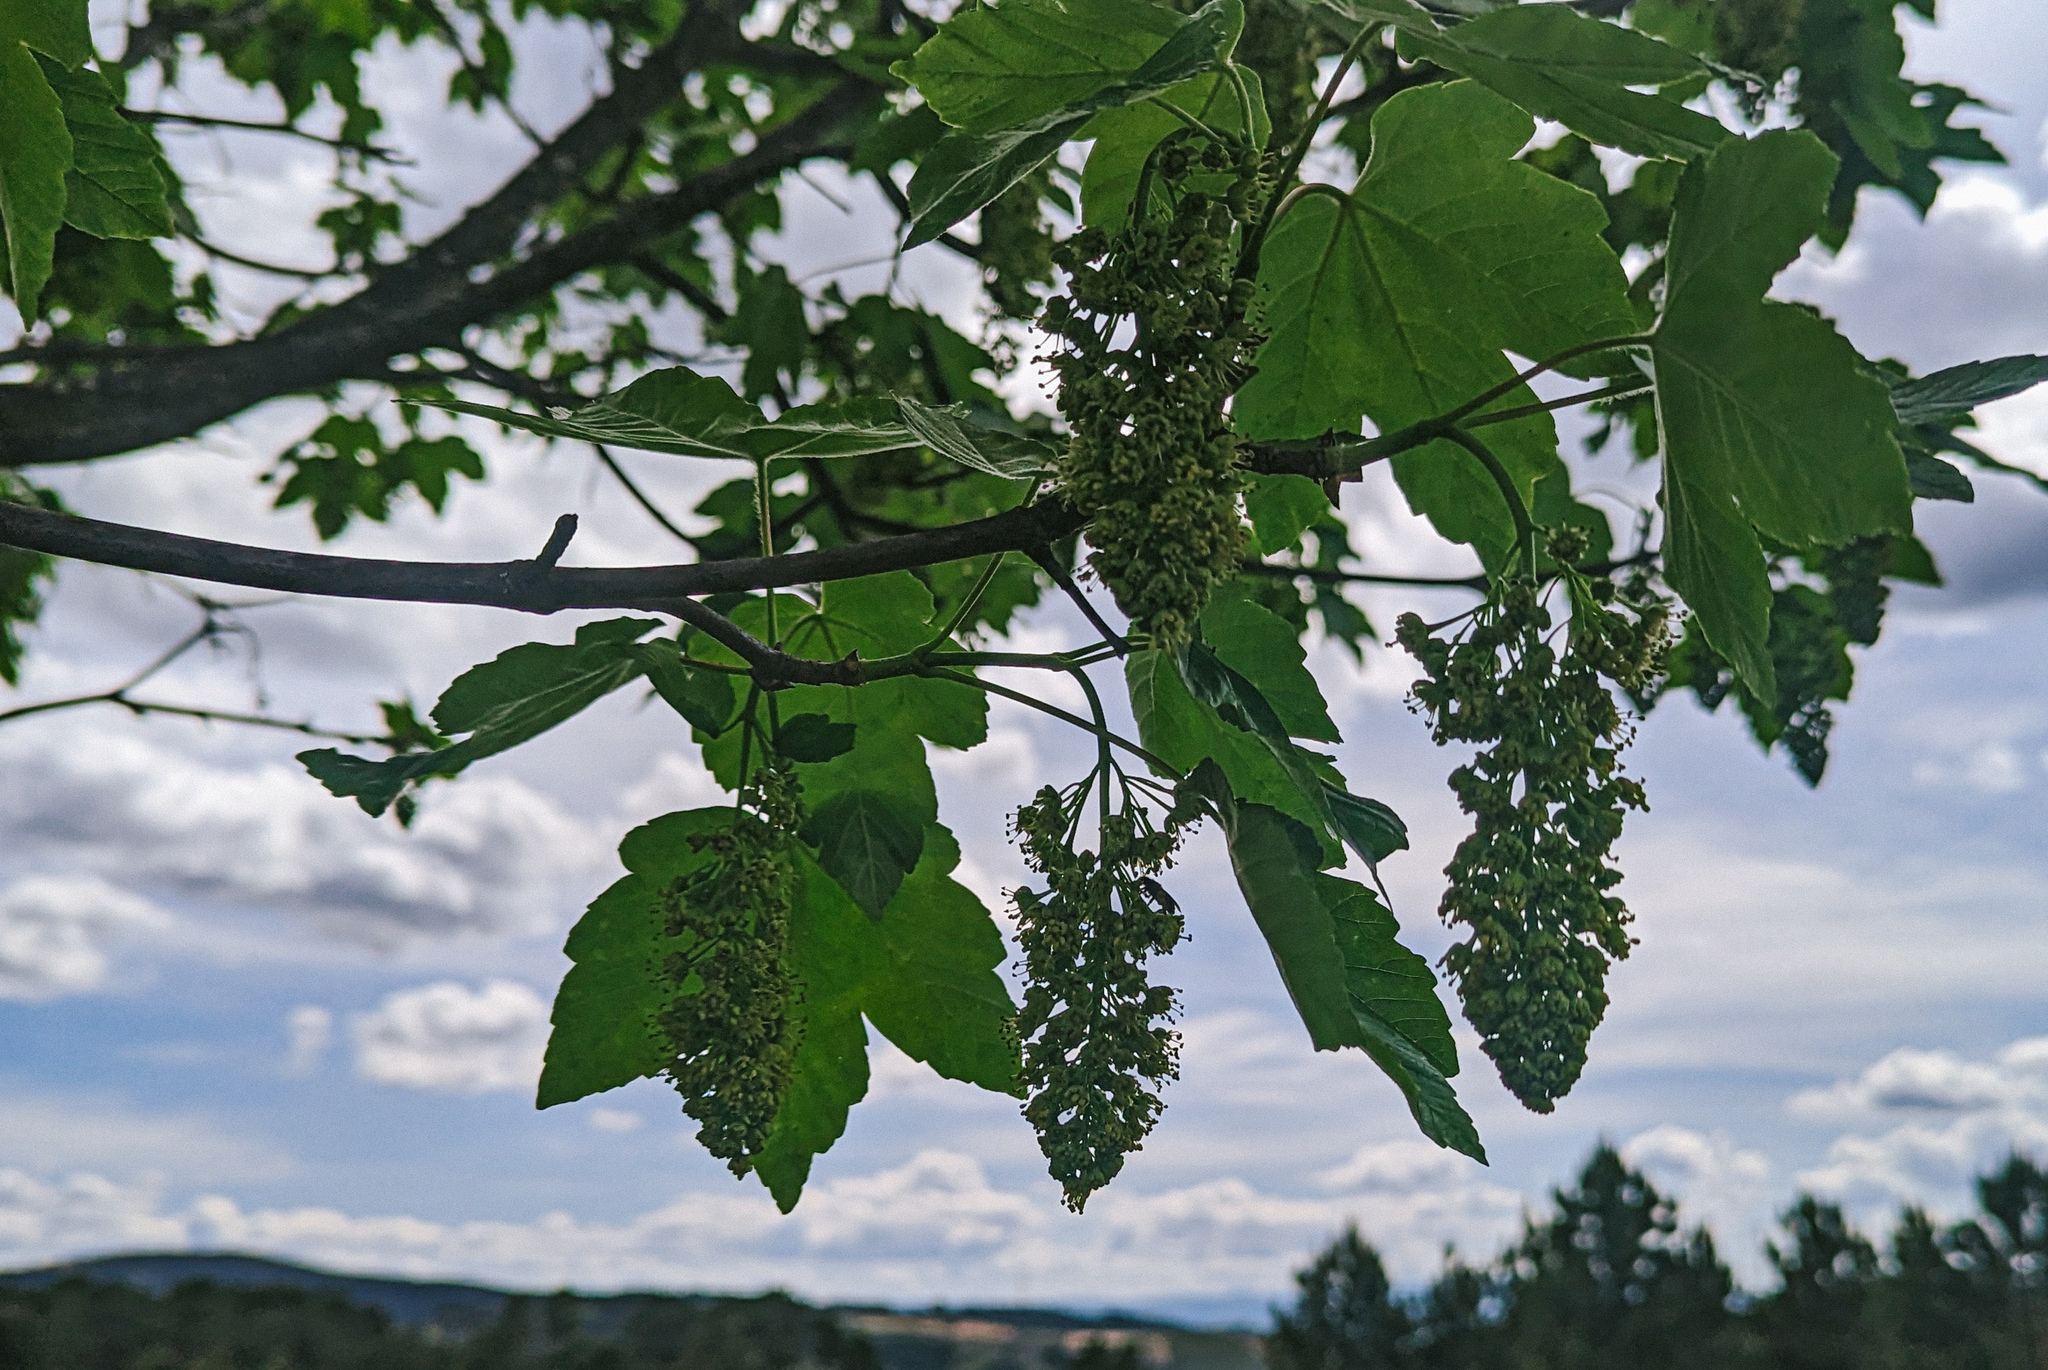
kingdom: Plantae
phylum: Tracheophyta
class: Magnoliopsida
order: Sapindales
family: Sapindaceae
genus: Acer
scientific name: Acer pseudoplatanus
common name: Sycamore
